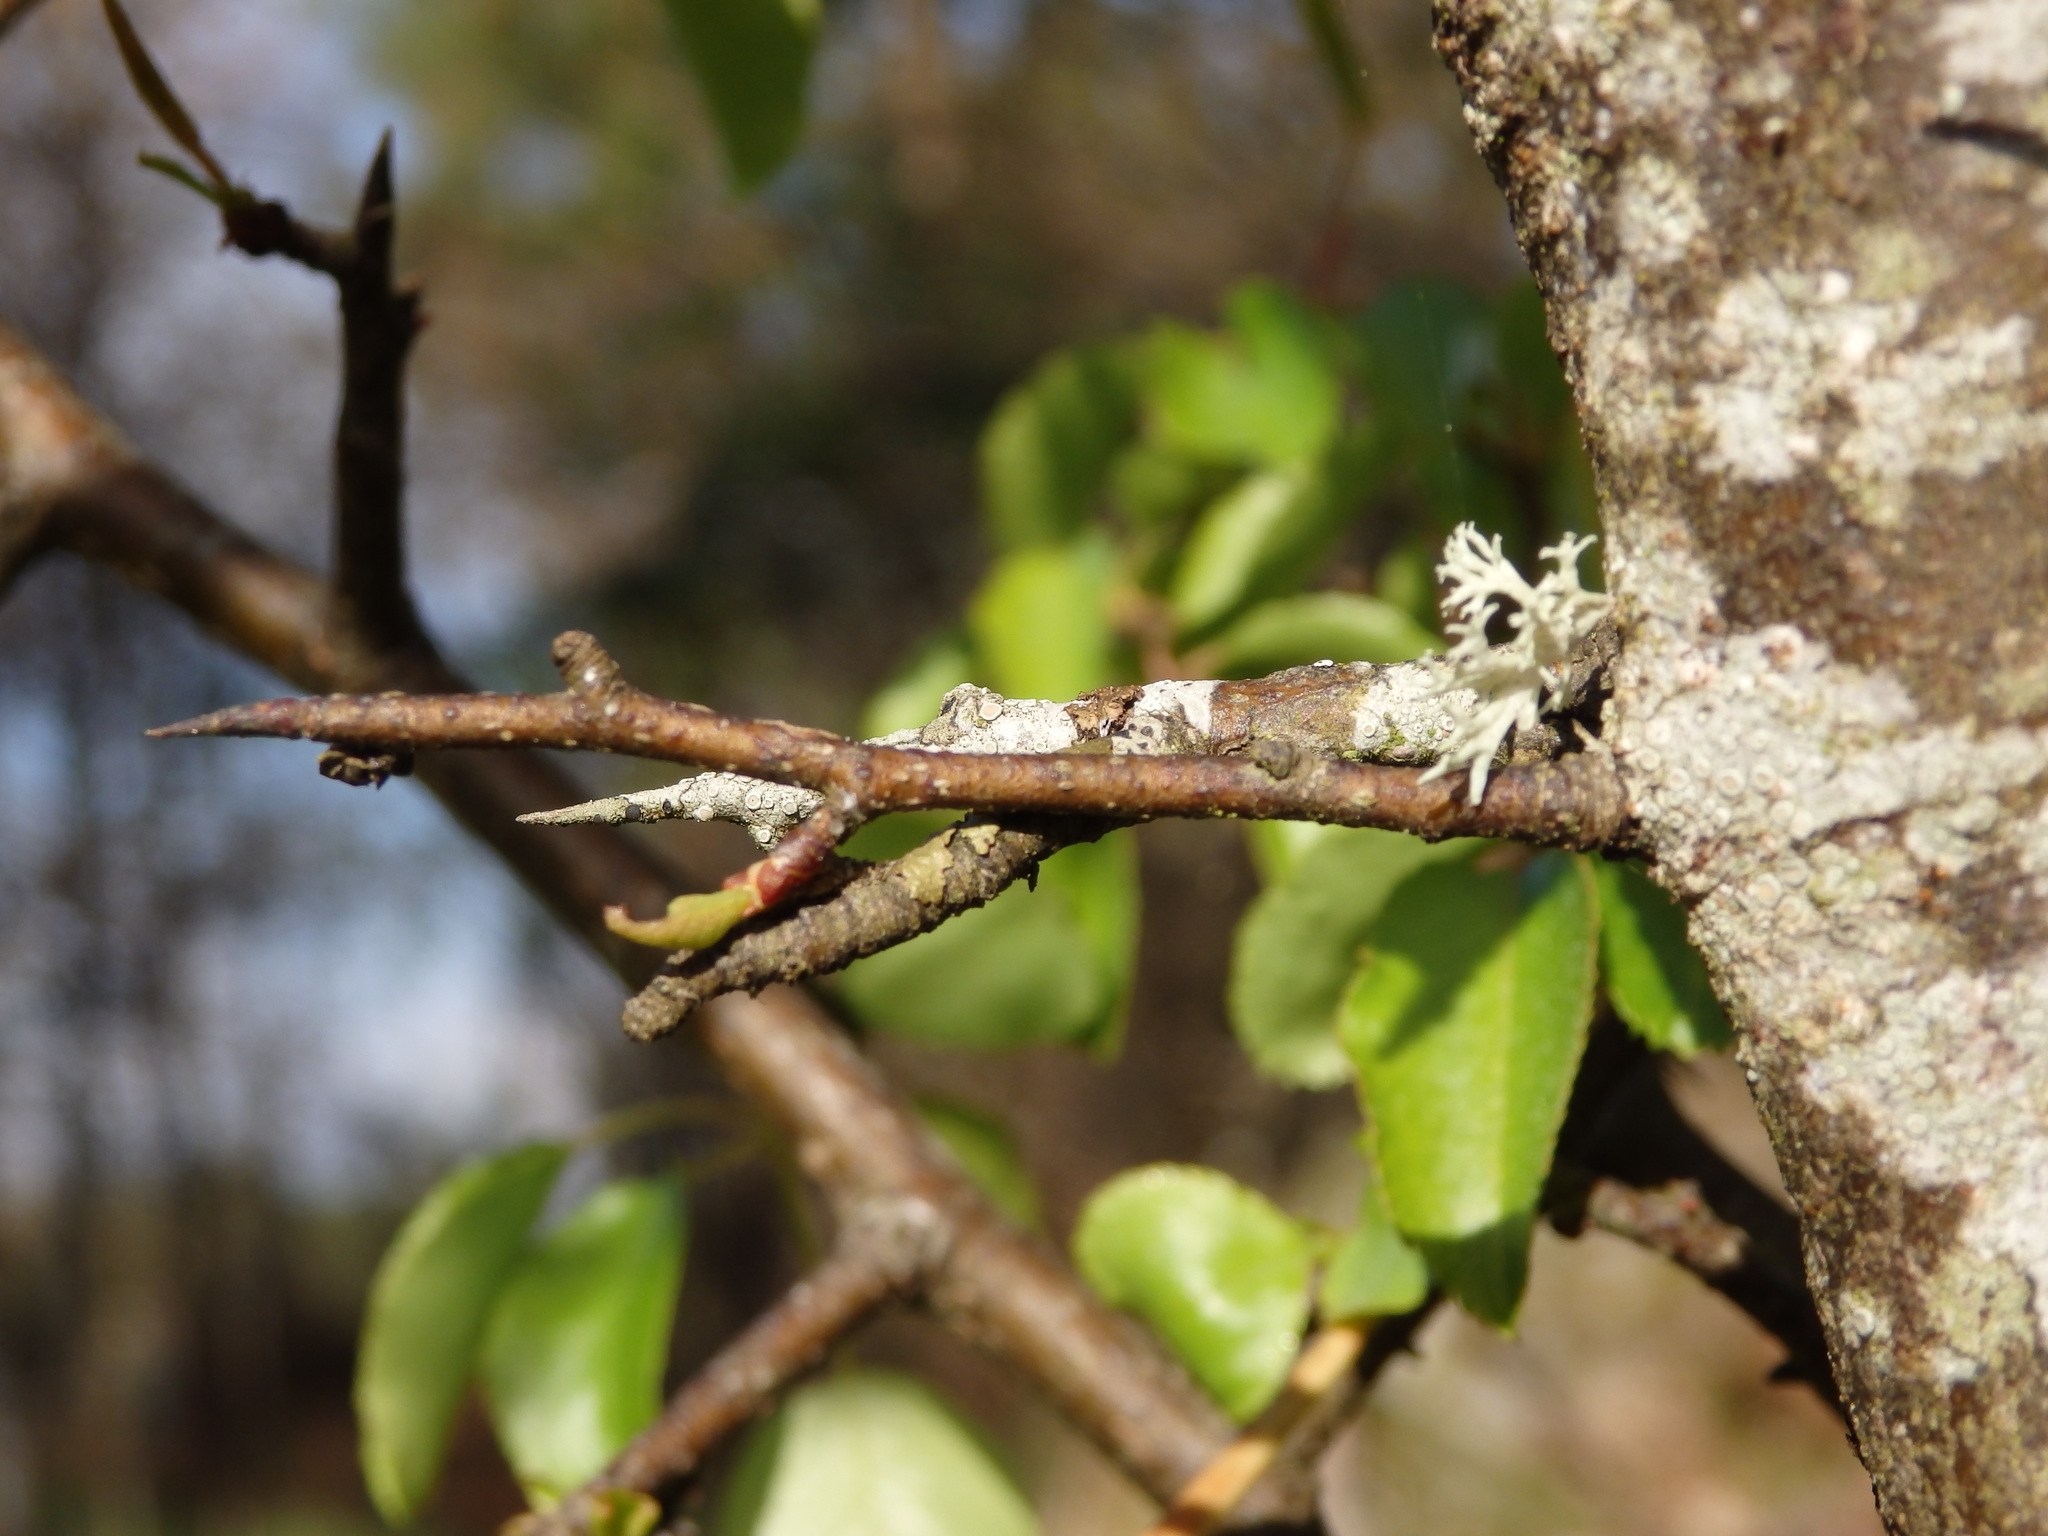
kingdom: Plantae
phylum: Tracheophyta
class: Magnoliopsida
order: Rosales
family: Rosaceae
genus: Pyrus
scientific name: Pyrus cordata
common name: Plymouth pear
